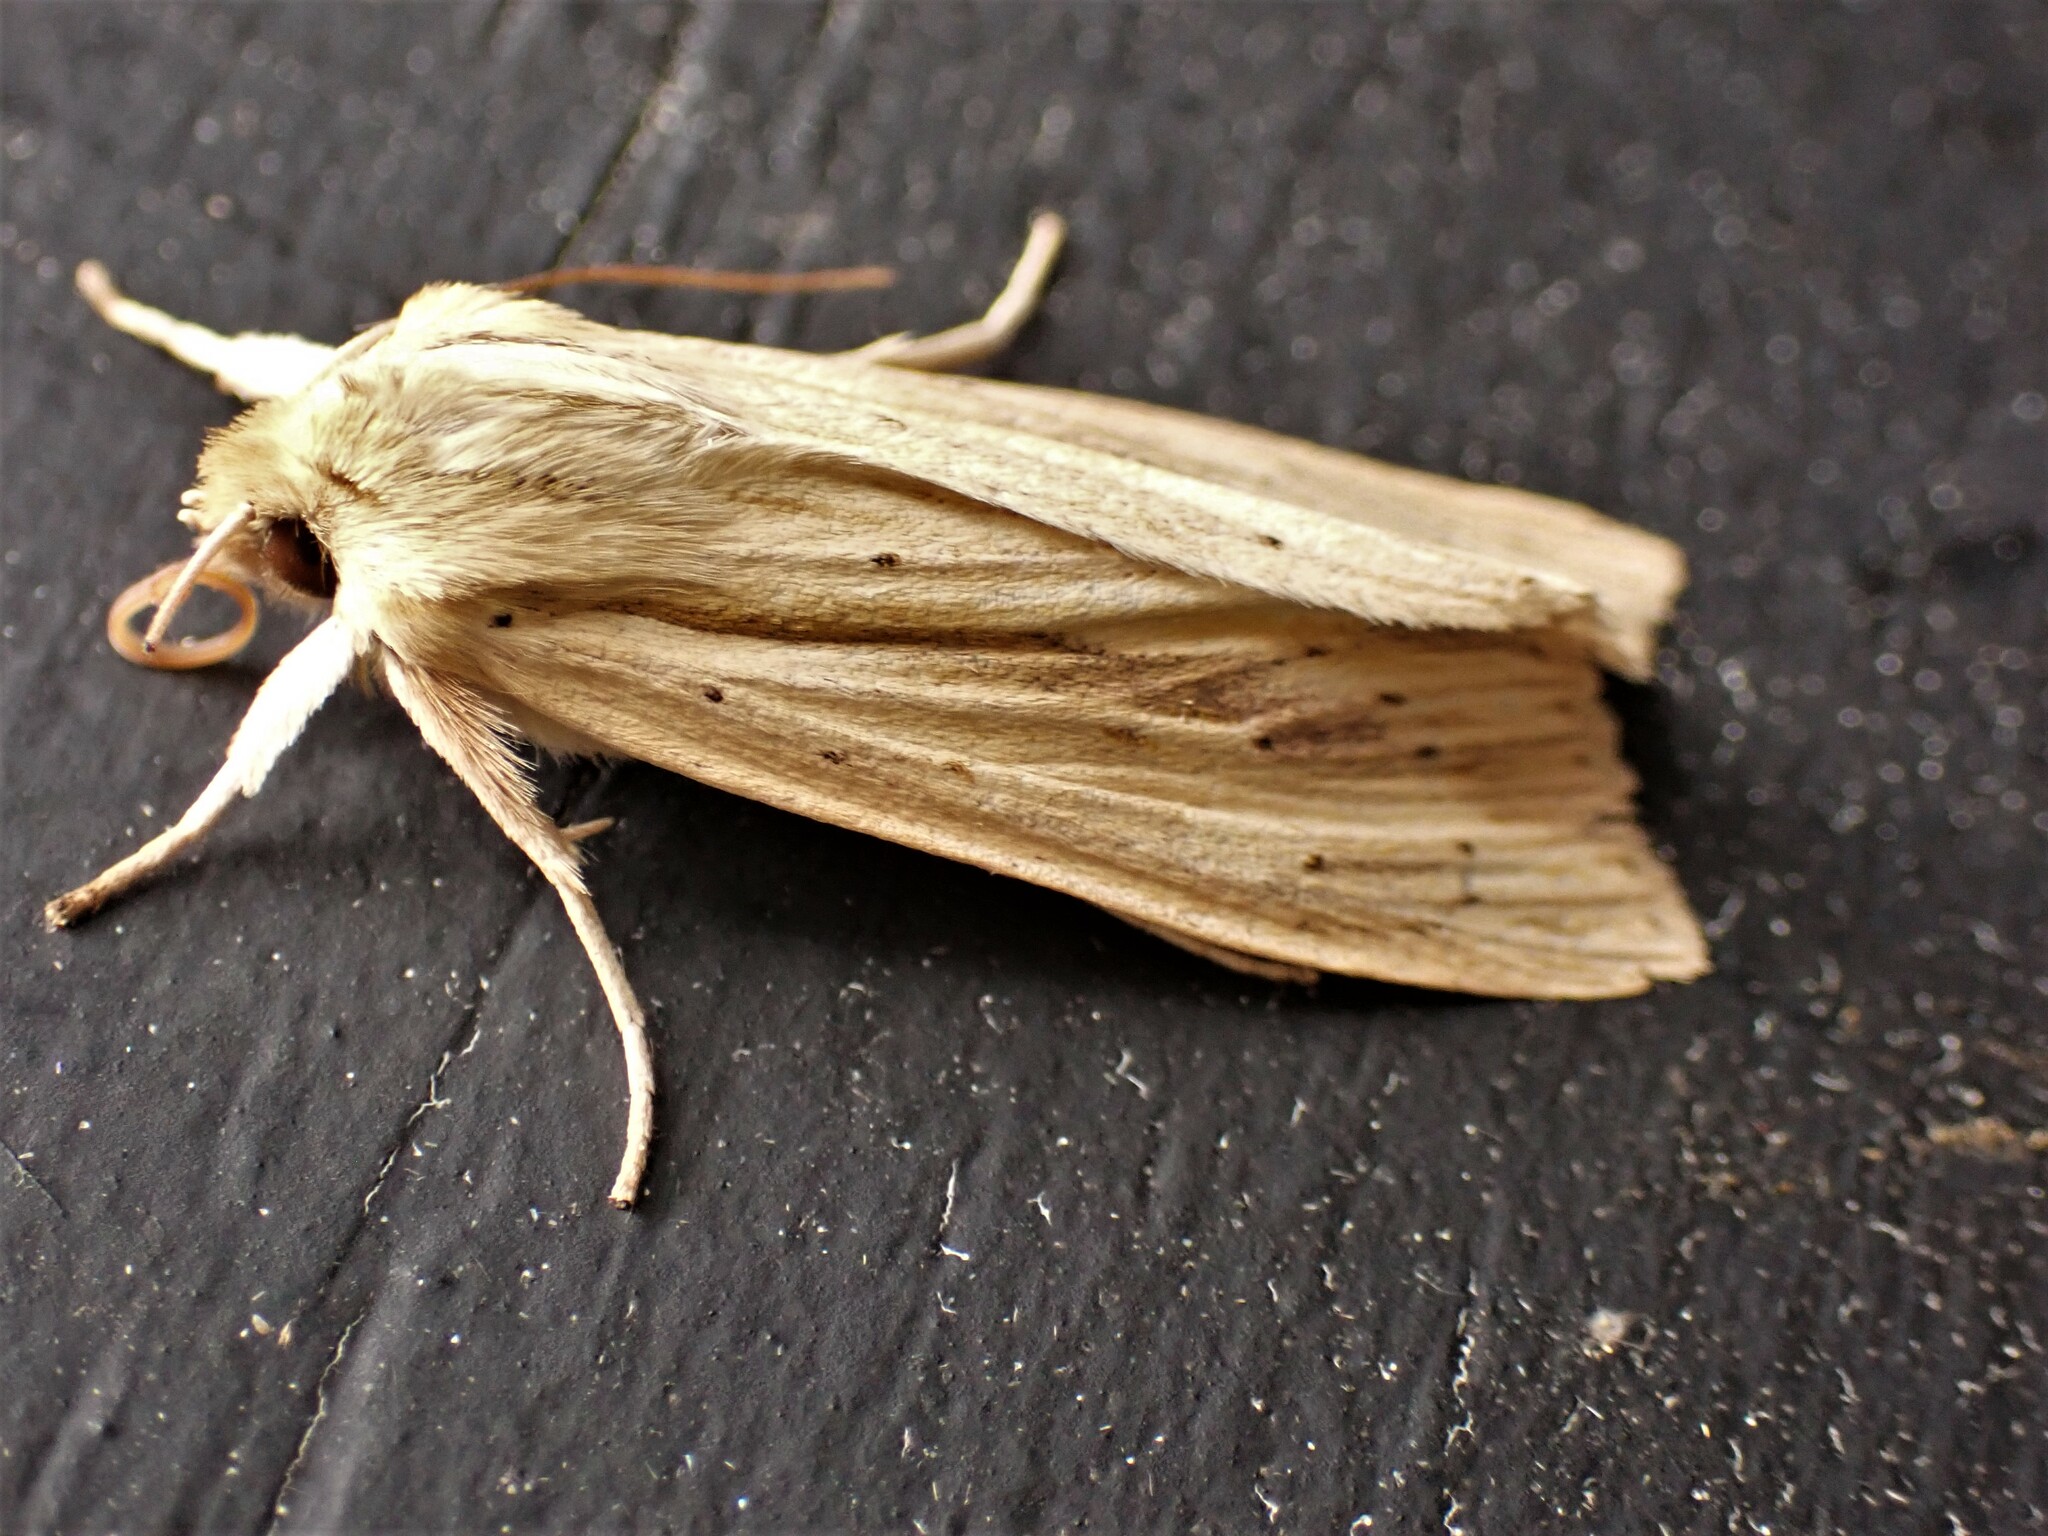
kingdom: Animalia
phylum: Arthropoda
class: Insecta
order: Lepidoptera
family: Noctuidae
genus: Ichneutica
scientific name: Ichneutica semivittata
